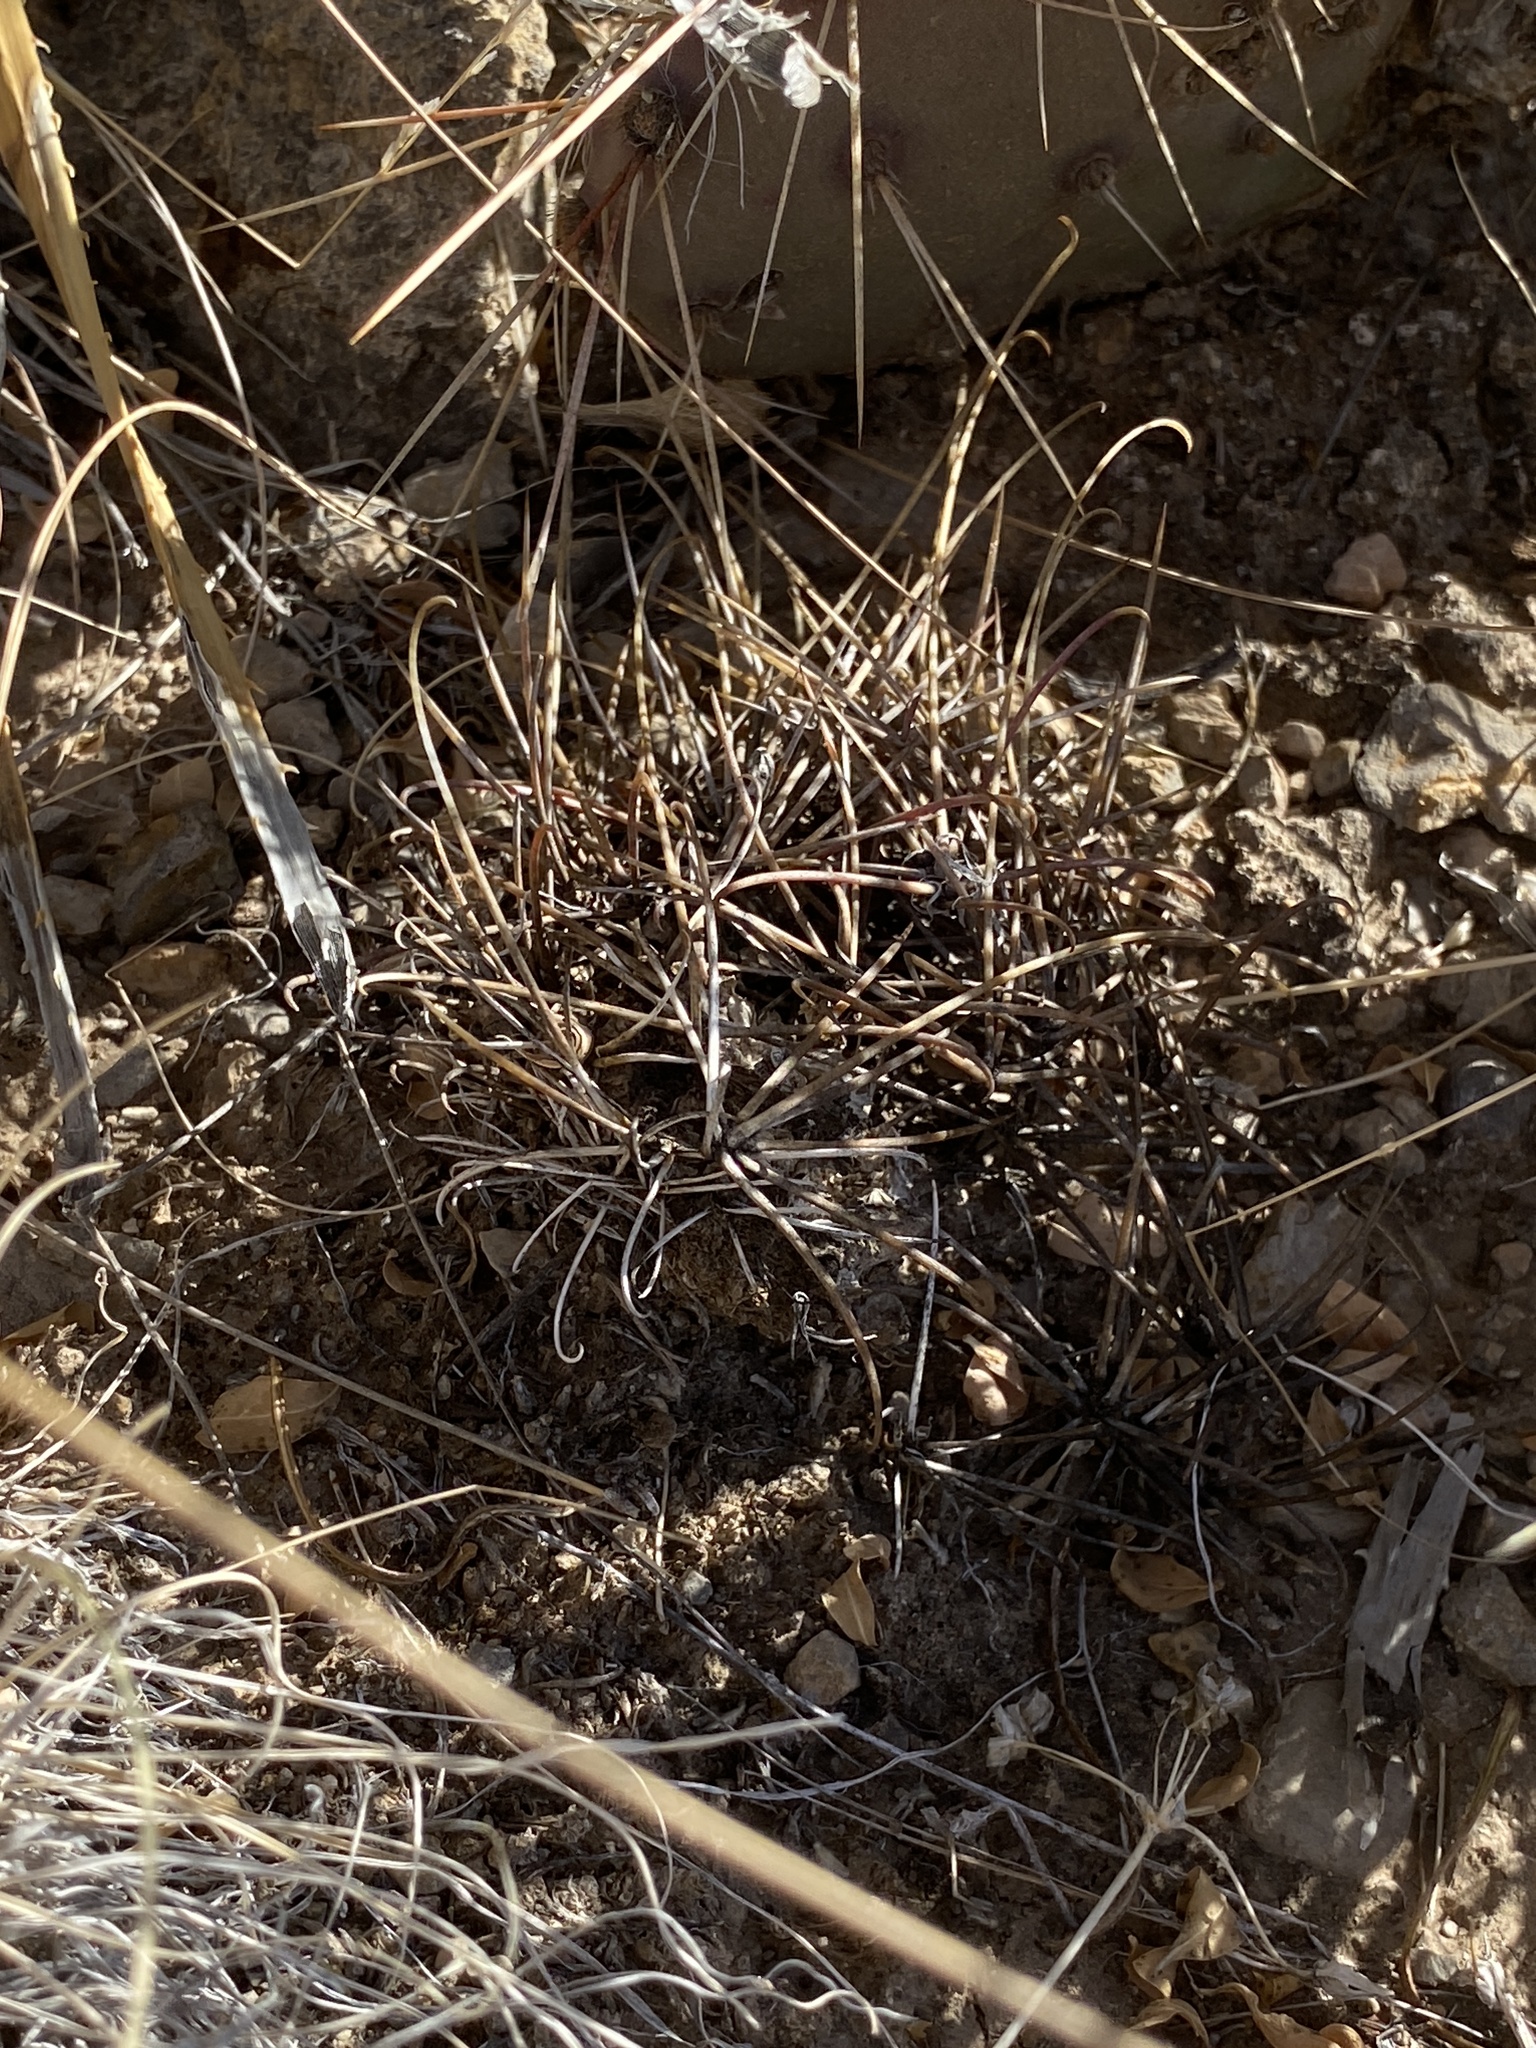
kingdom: Plantae
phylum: Tracheophyta
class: Magnoliopsida
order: Caryophyllales
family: Cactaceae
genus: Ferocactus
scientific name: Ferocactus uncinatus
